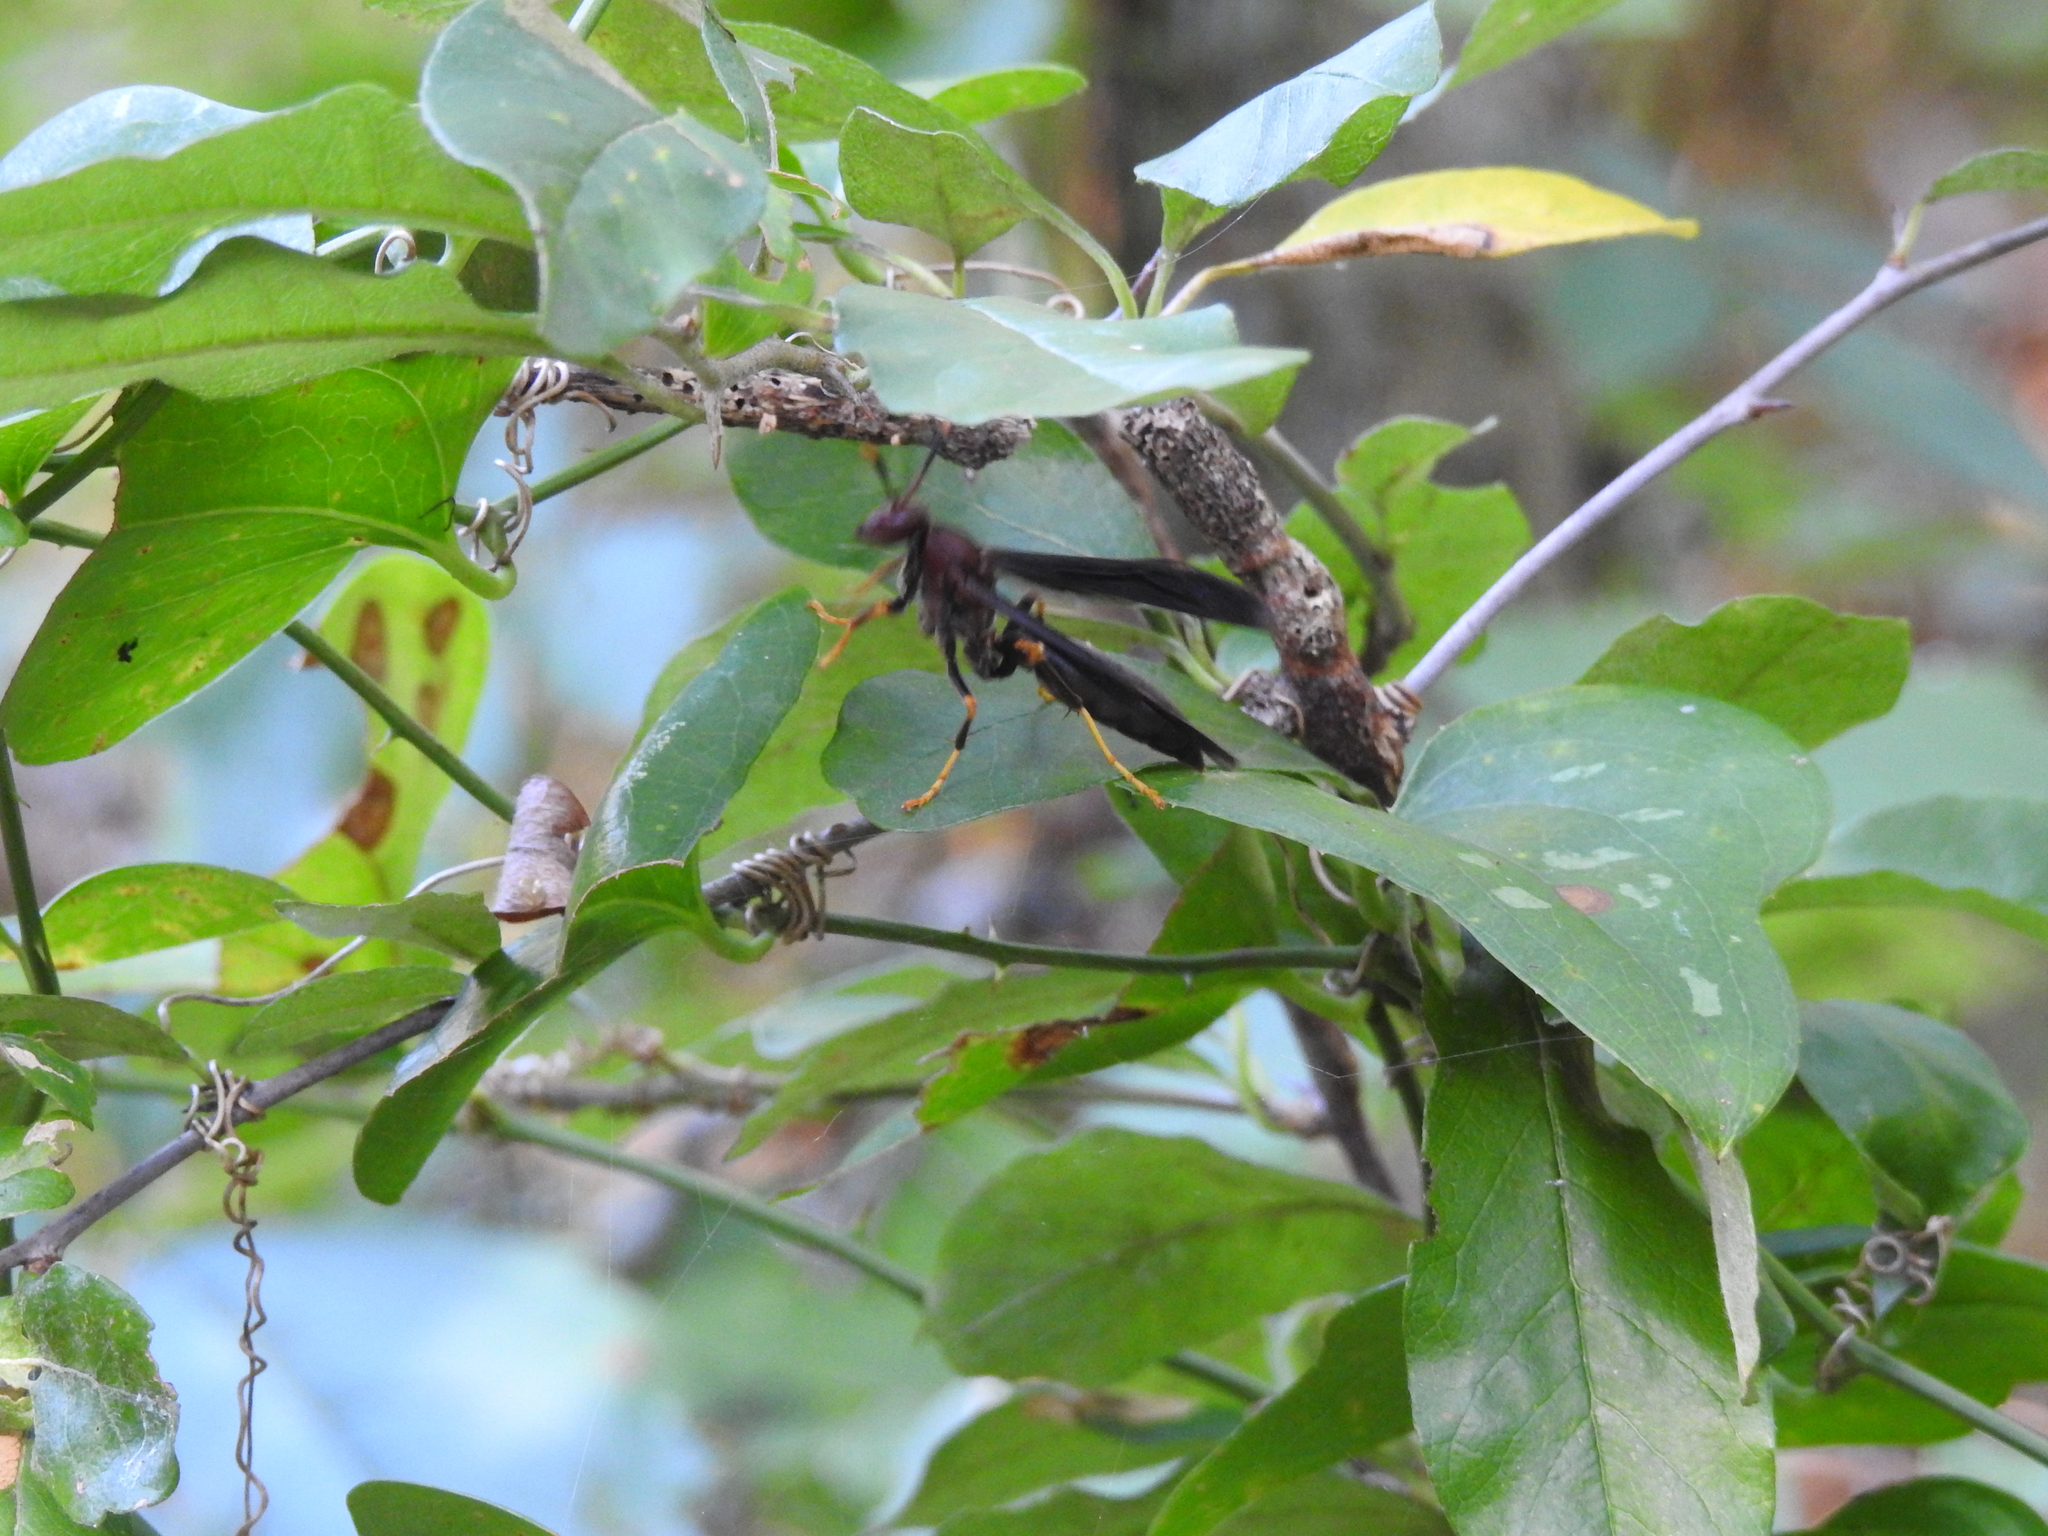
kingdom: Animalia
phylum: Arthropoda
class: Insecta
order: Hymenoptera
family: Eumenidae
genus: Polistes
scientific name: Polistes annularis
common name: Ringed paper wasp
